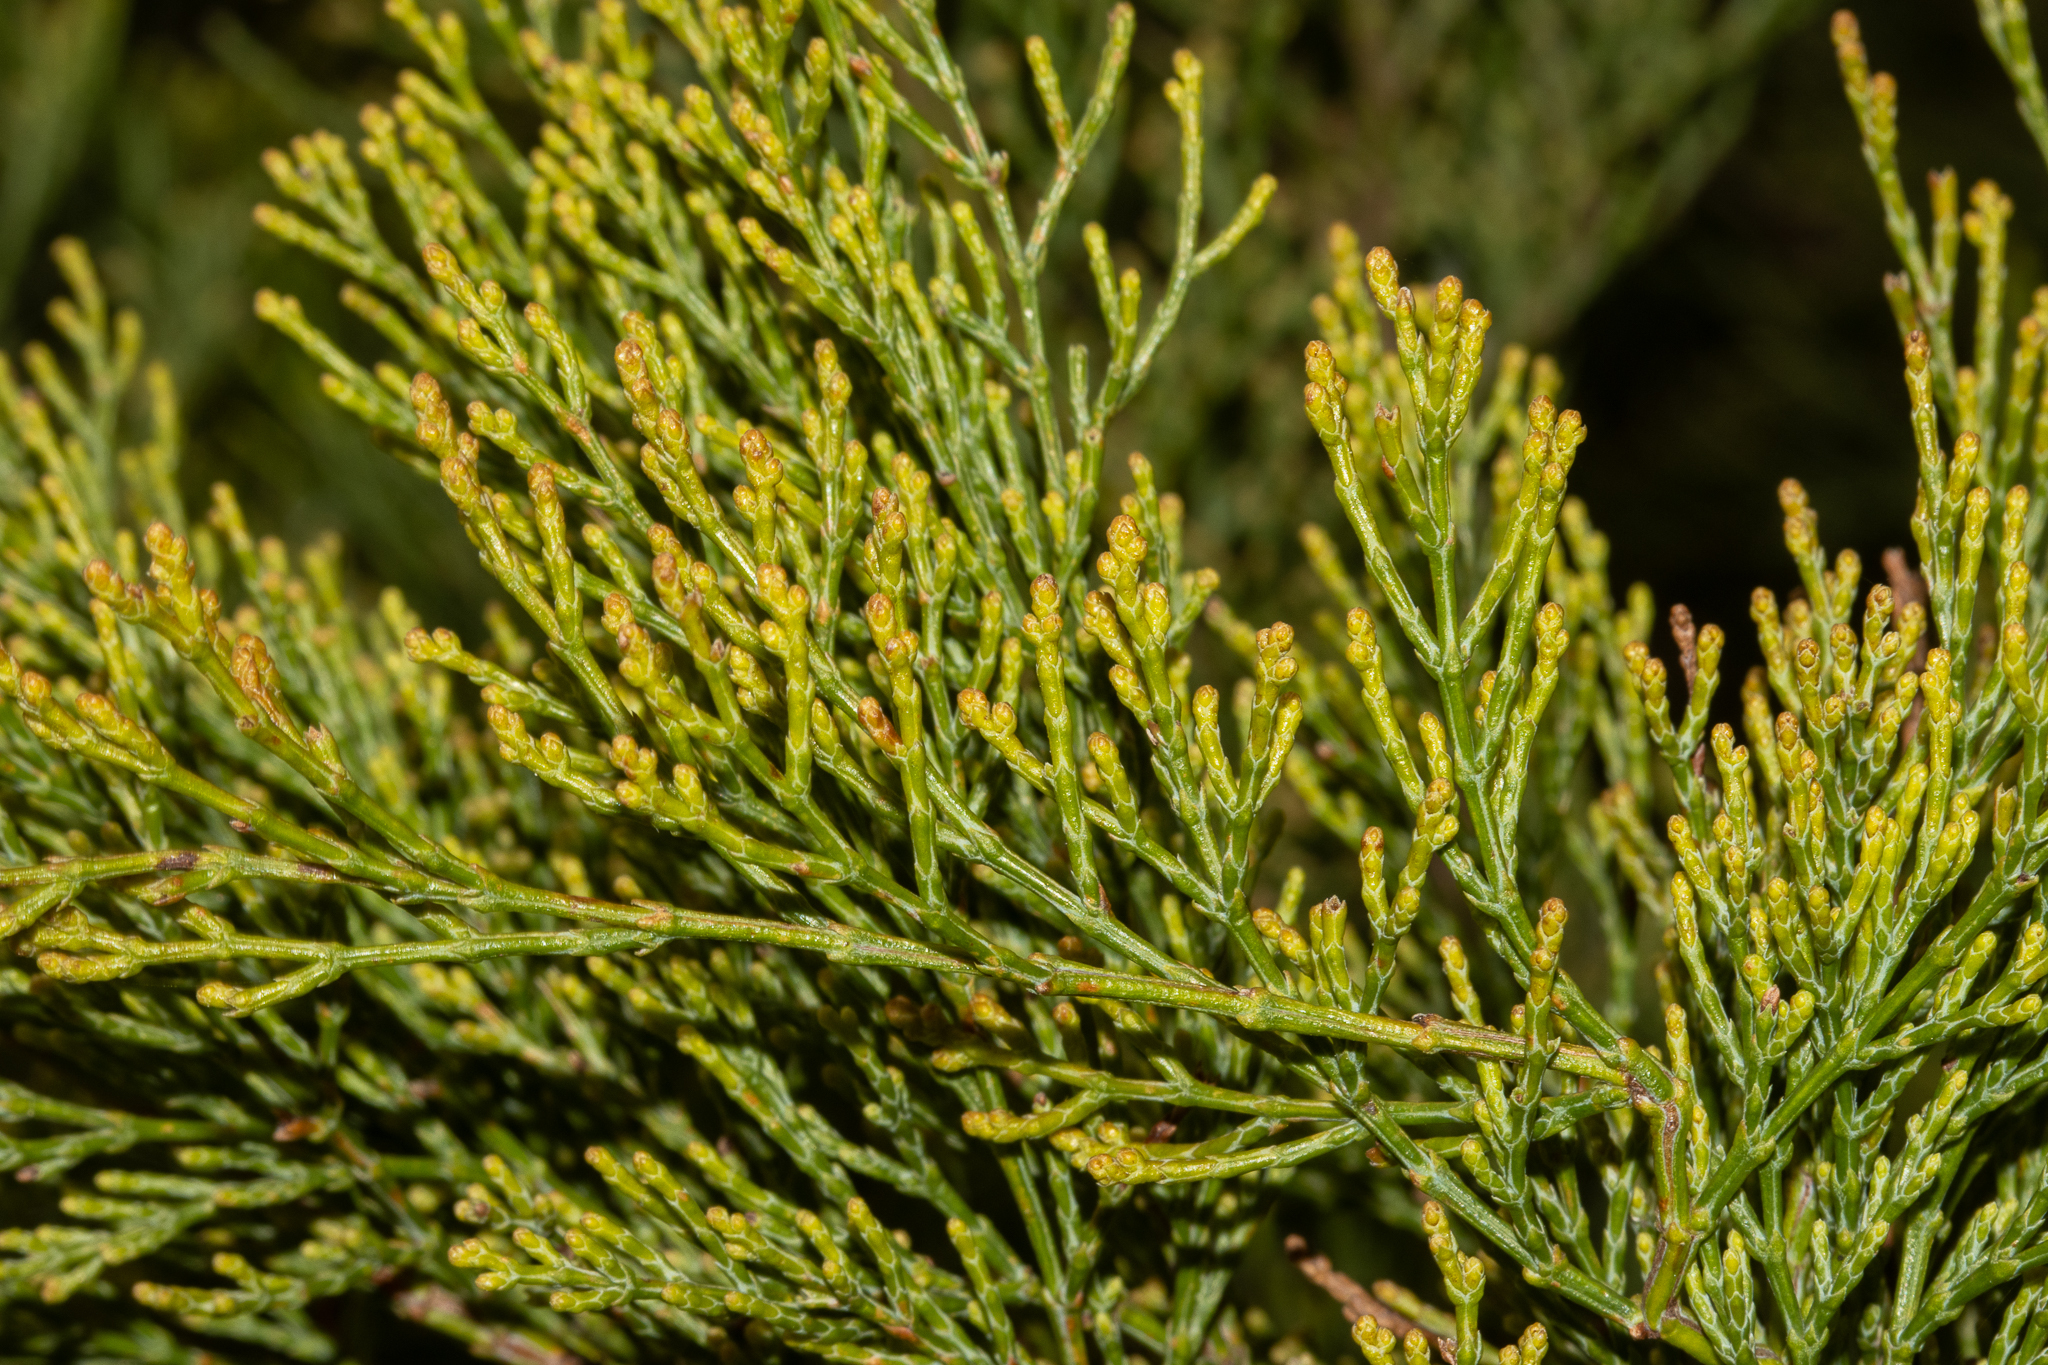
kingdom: Plantae
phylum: Tracheophyta
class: Pinopsida
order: Pinales
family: Cupressaceae
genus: Callitris
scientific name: Callitris verrucosa
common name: Scrub cypress-pine
